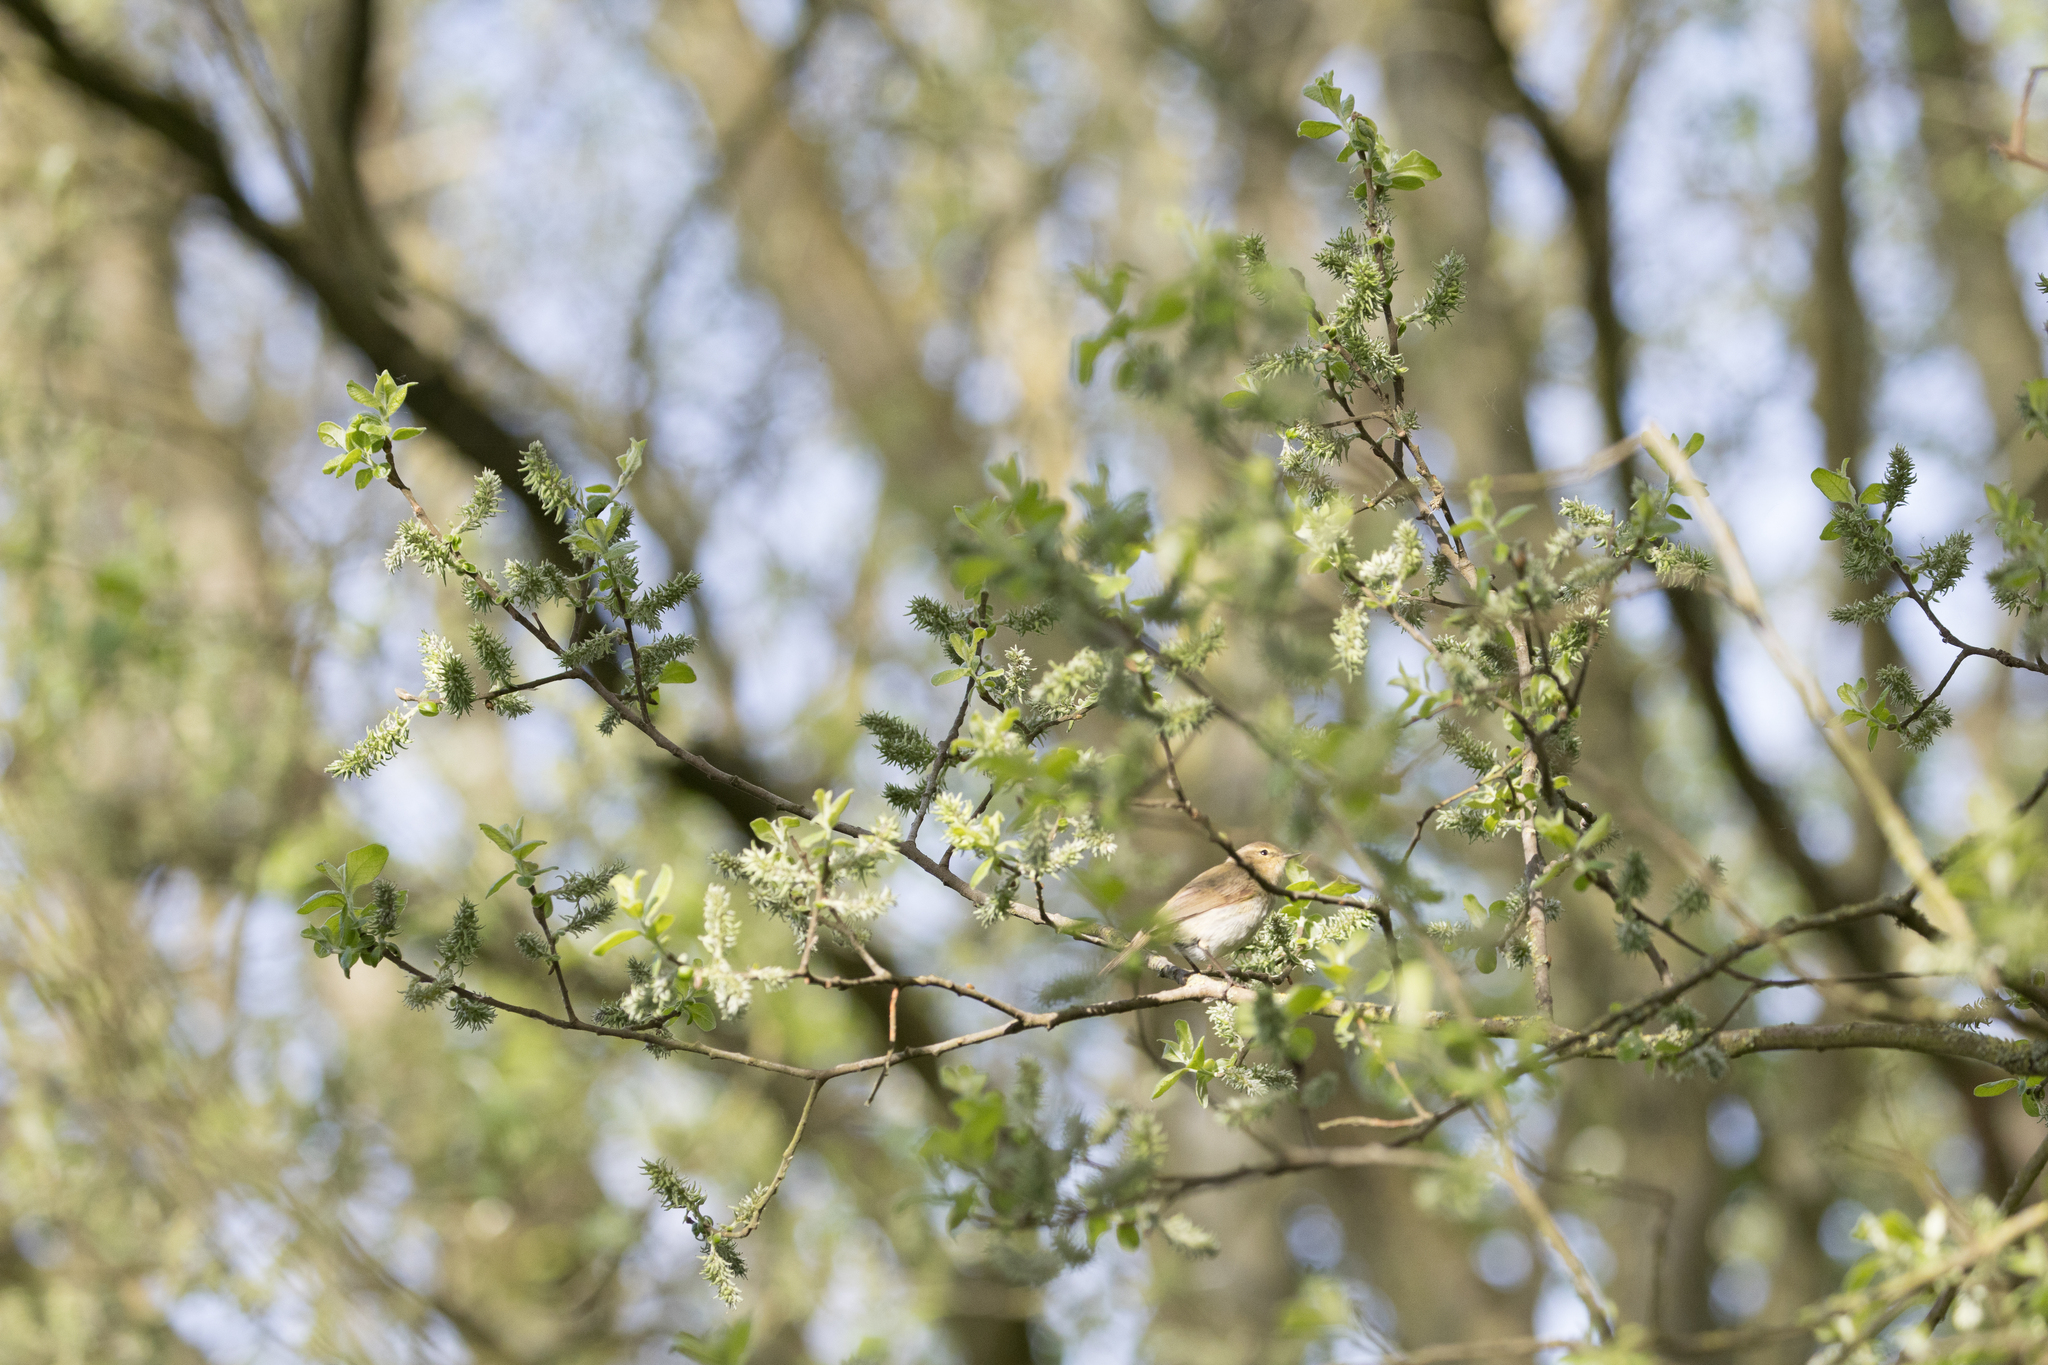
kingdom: Animalia
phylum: Chordata
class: Aves
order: Passeriformes
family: Phylloscopidae
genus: Phylloscopus
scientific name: Phylloscopus collybita
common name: Common chiffchaff
